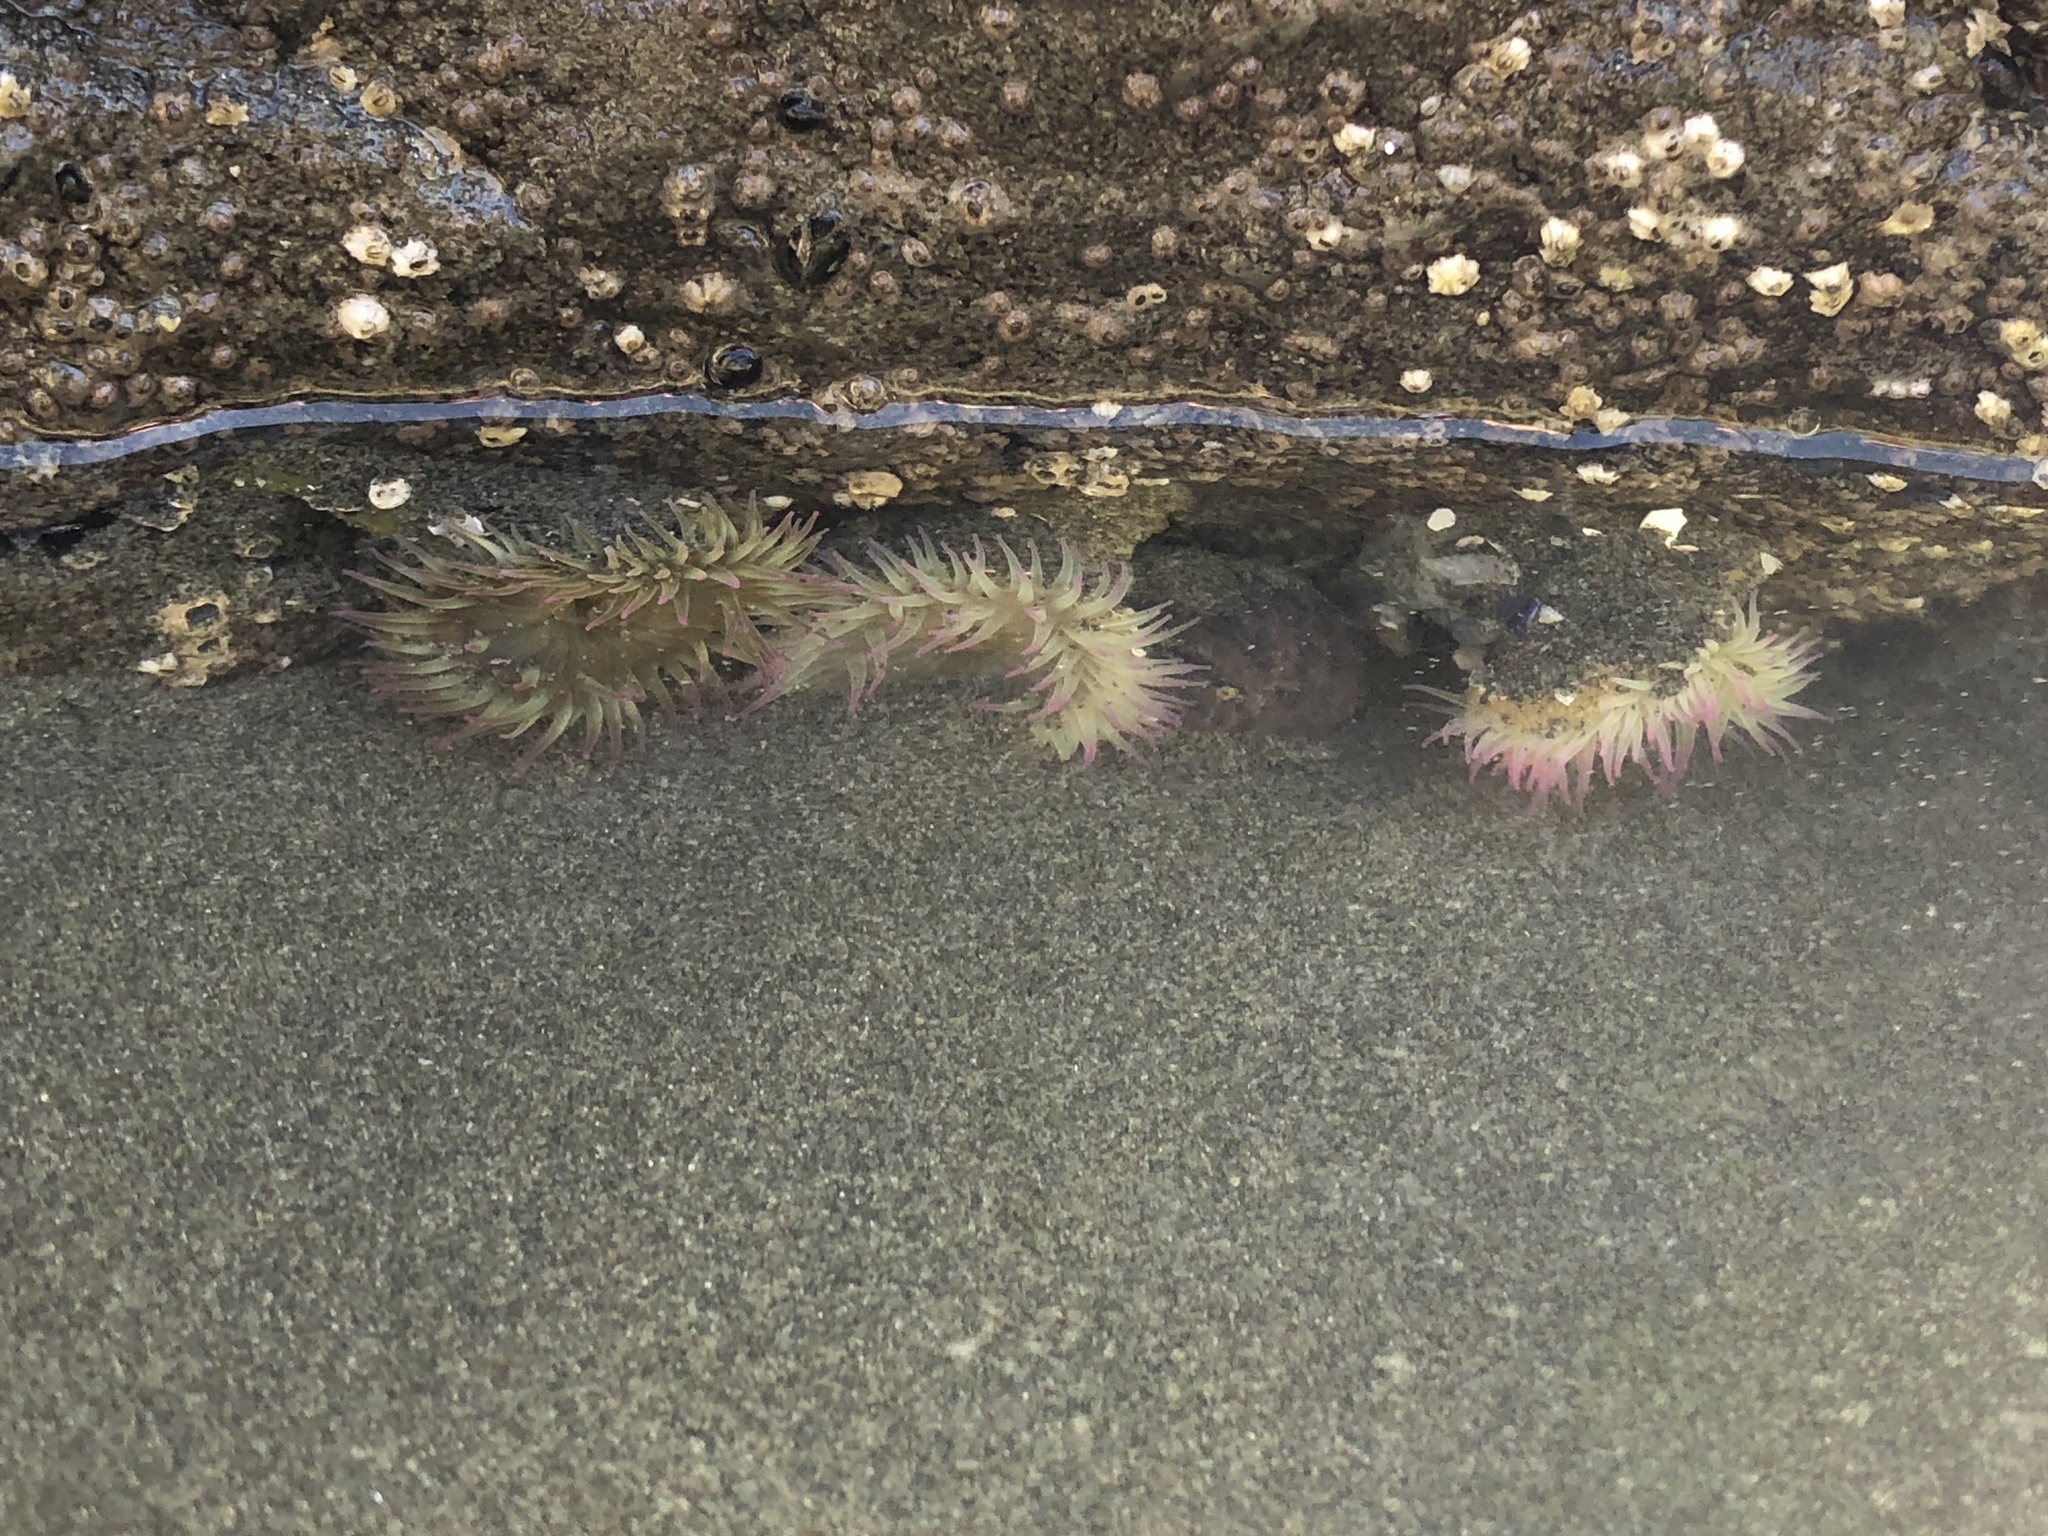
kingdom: Animalia
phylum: Cnidaria
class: Anthozoa
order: Actiniaria
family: Actiniidae
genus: Anthopleura
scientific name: Anthopleura elegantissima
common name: Clonal anemone
